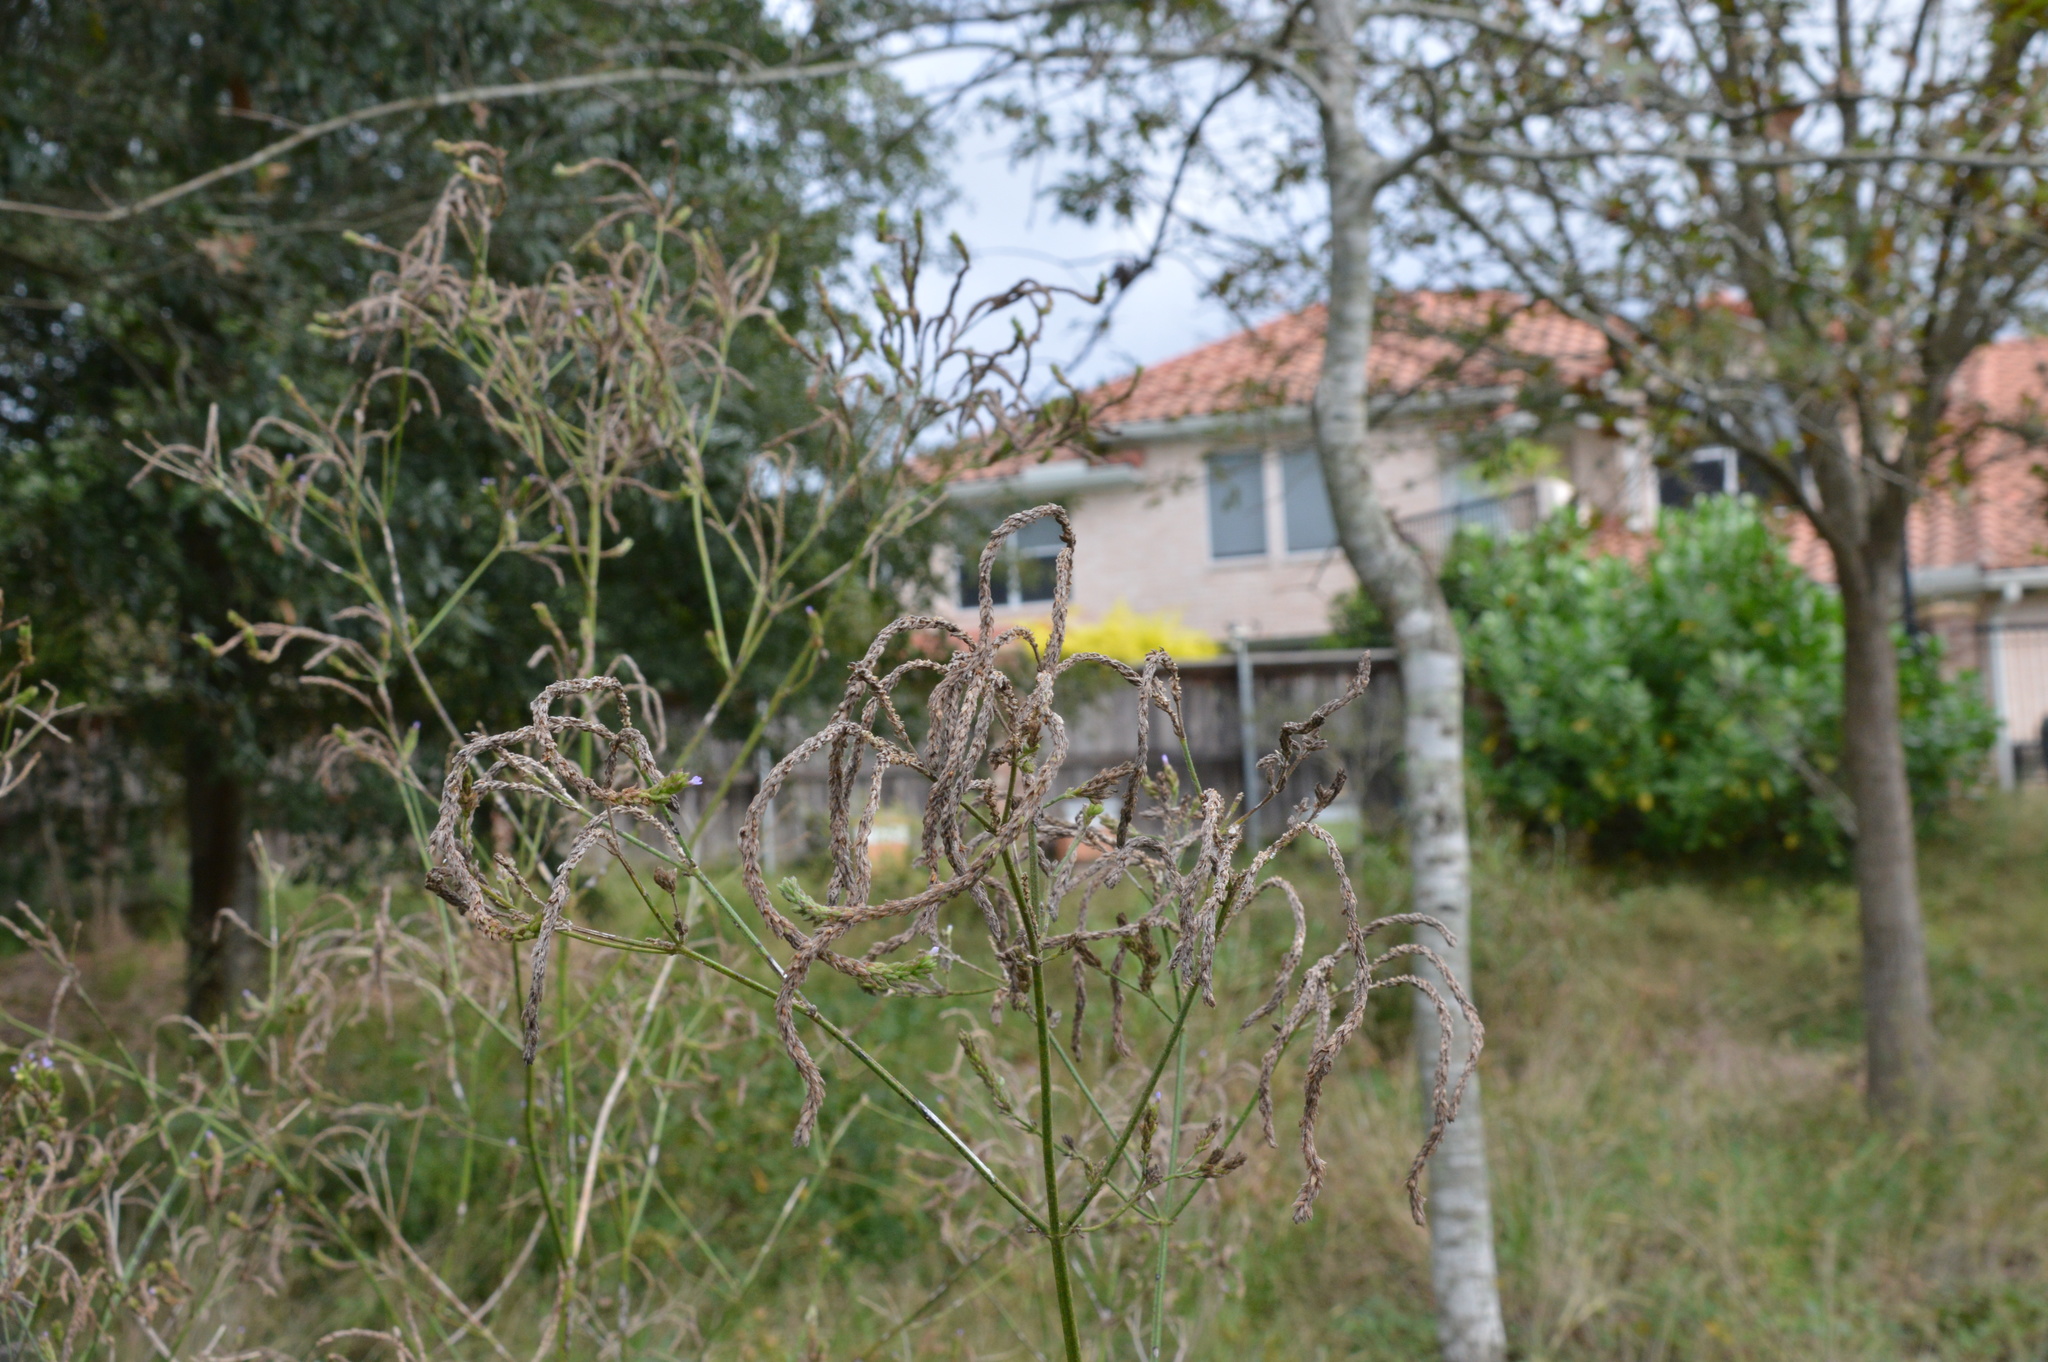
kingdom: Plantae
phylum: Tracheophyta
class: Magnoliopsida
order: Lamiales
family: Verbenaceae
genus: Verbena
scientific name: Verbena brasiliensis
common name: Brazilian vervain
